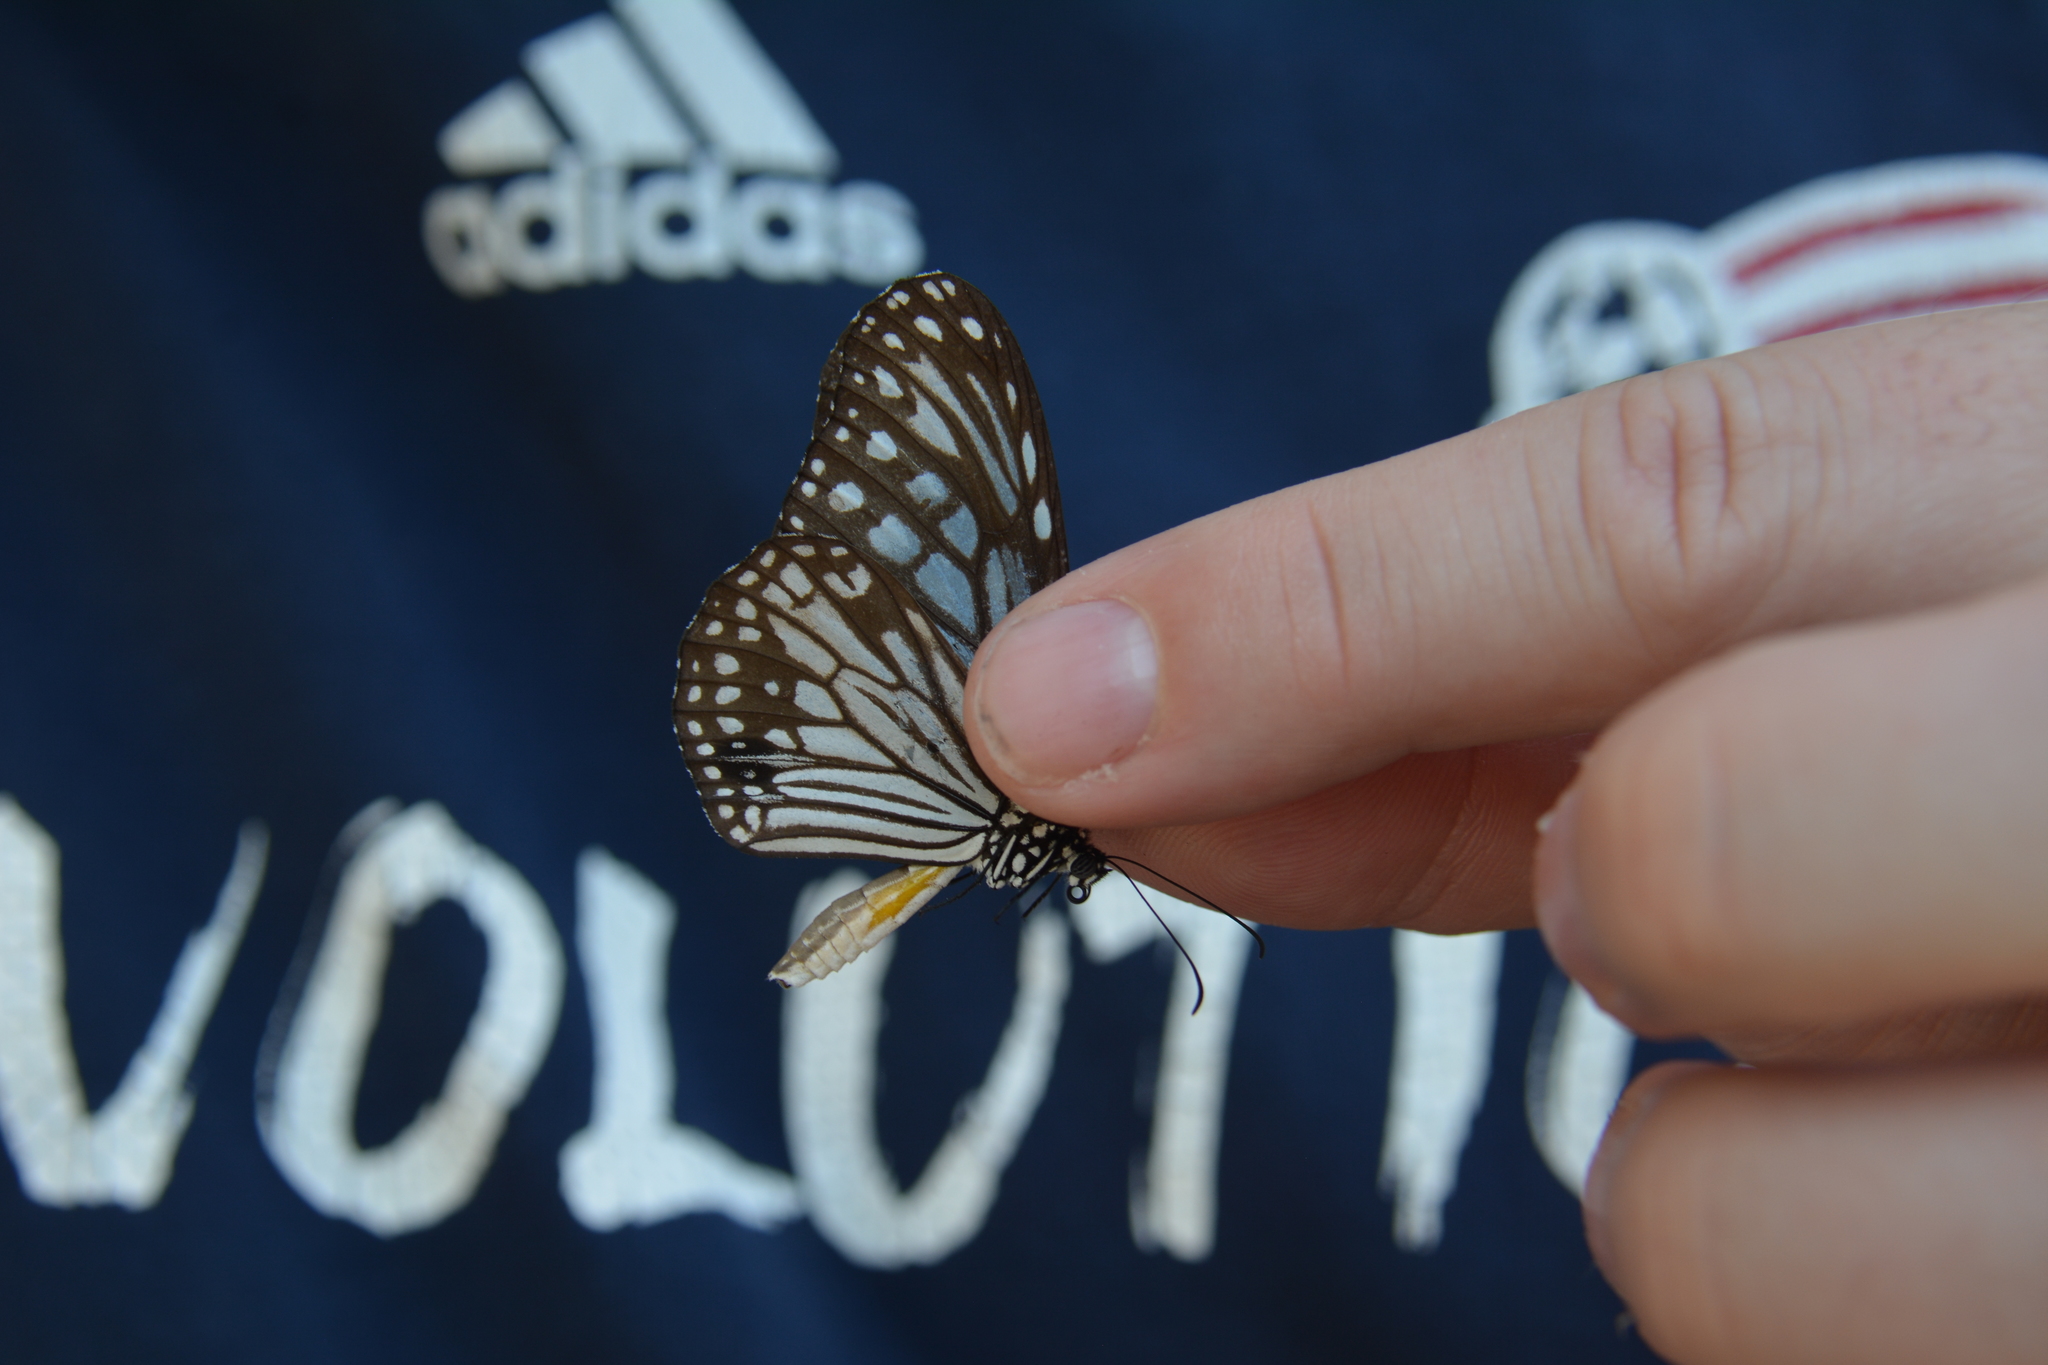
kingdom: Animalia
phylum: Arthropoda
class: Insecta
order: Lepidoptera
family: Nymphalidae
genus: Parantica
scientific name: Parantica aglea
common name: Glassy tiger
